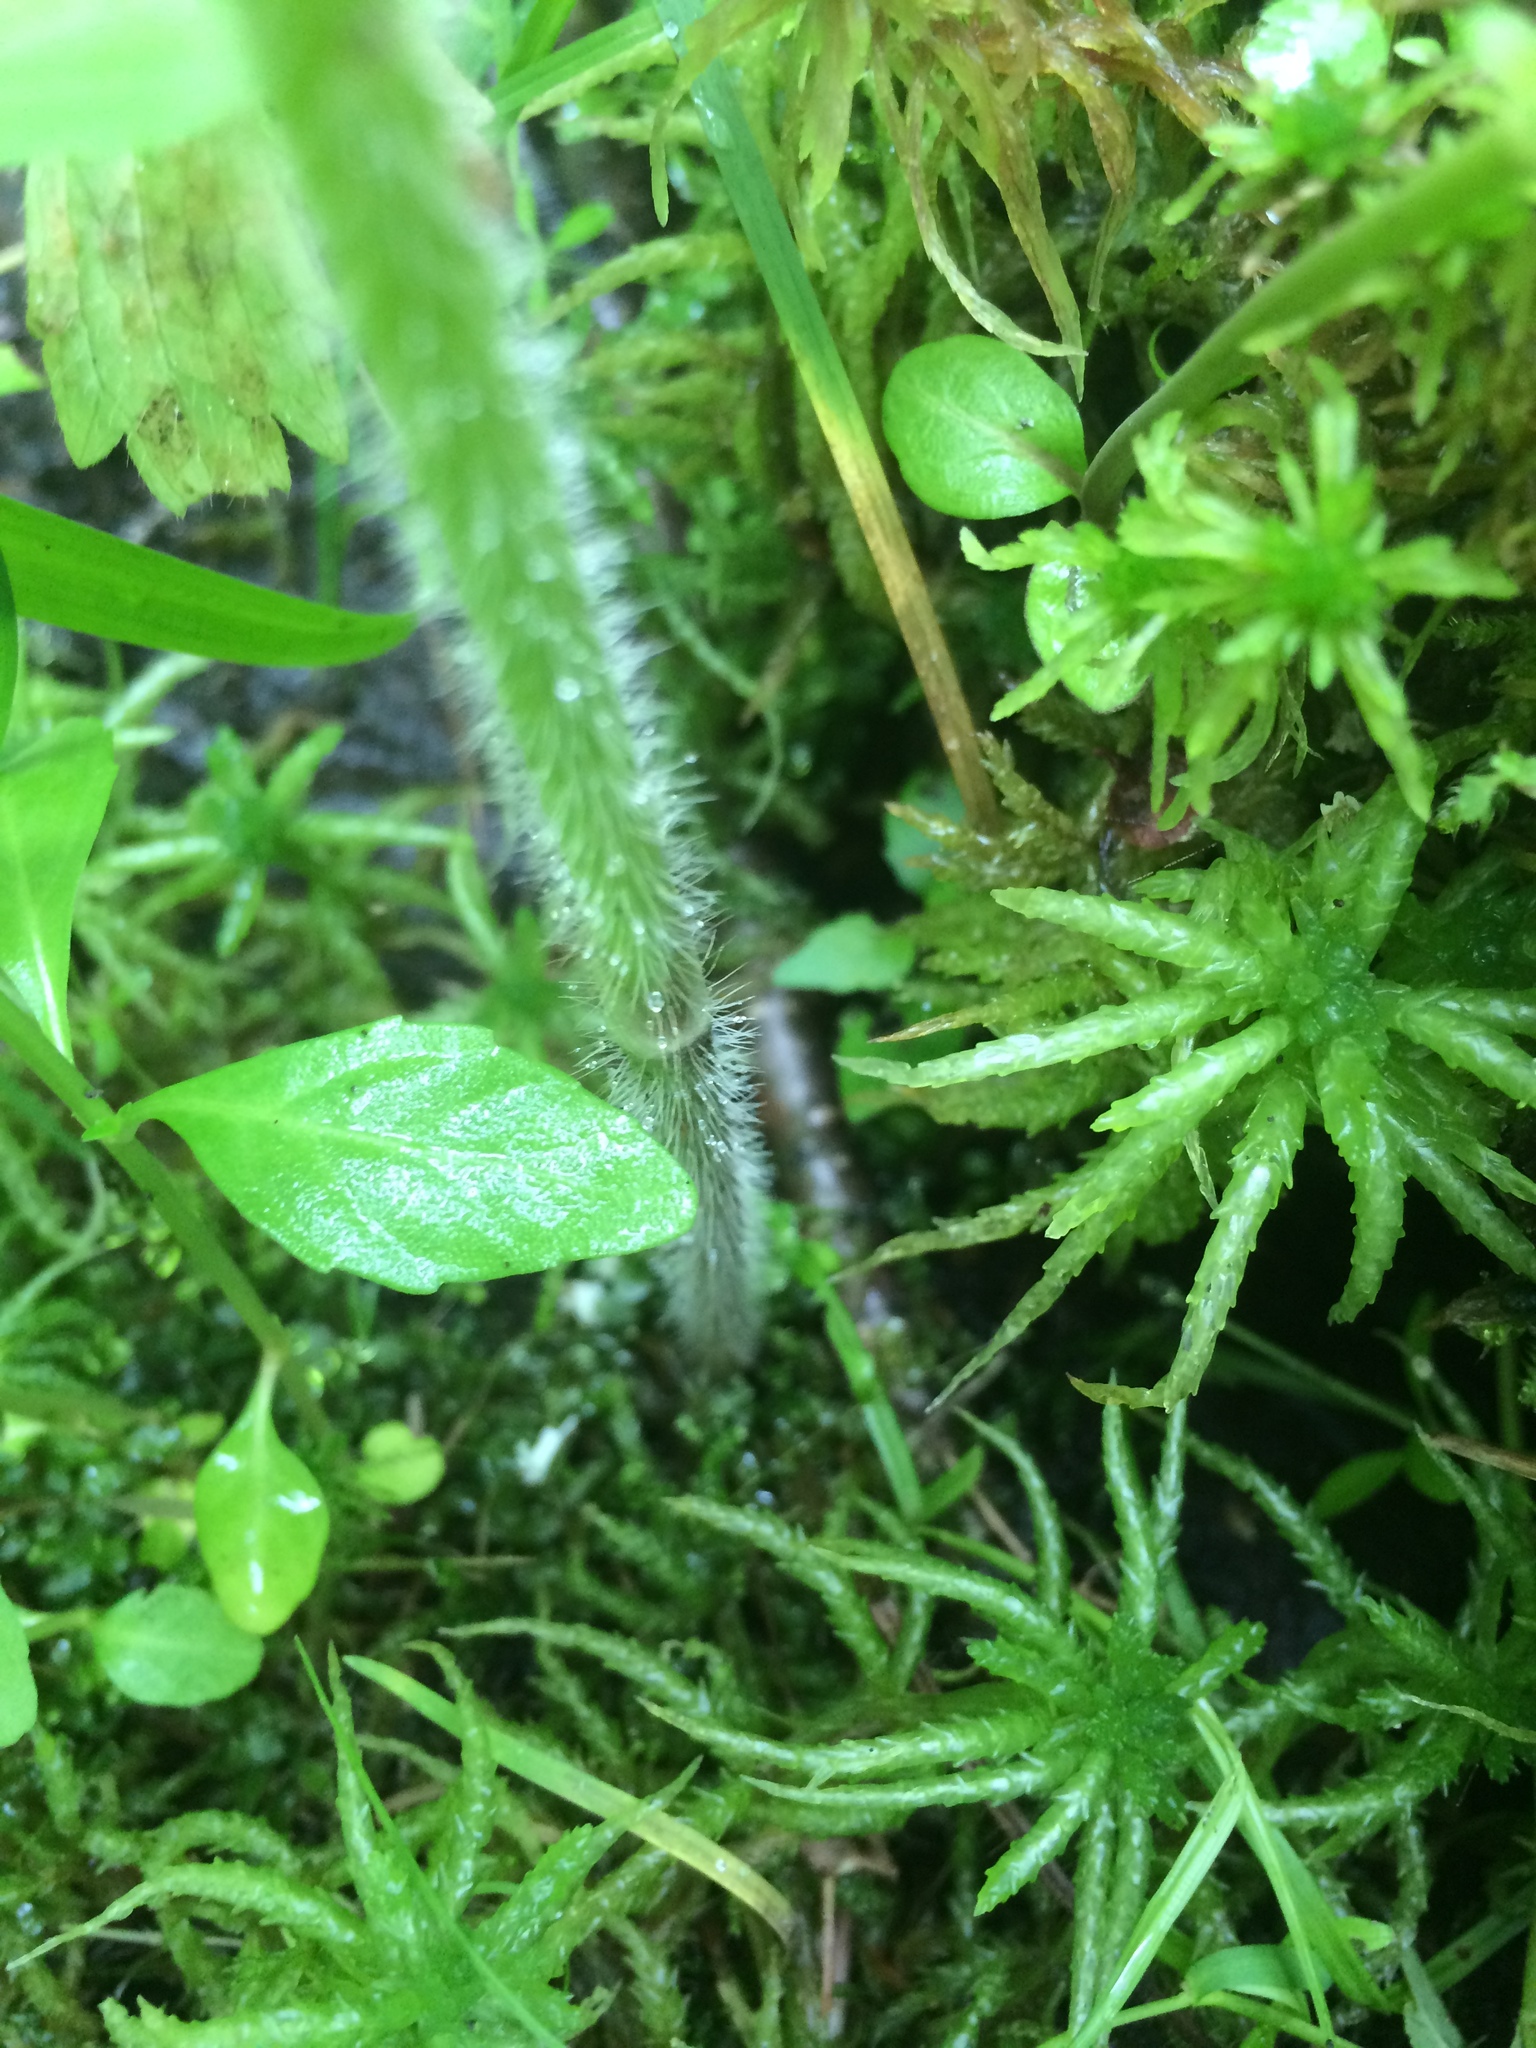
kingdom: Plantae
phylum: Tracheophyta
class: Magnoliopsida
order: Ranunculales
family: Ranunculaceae
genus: Ranunculus
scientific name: Ranunculus pensylvanicus
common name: Bristly buttercup
